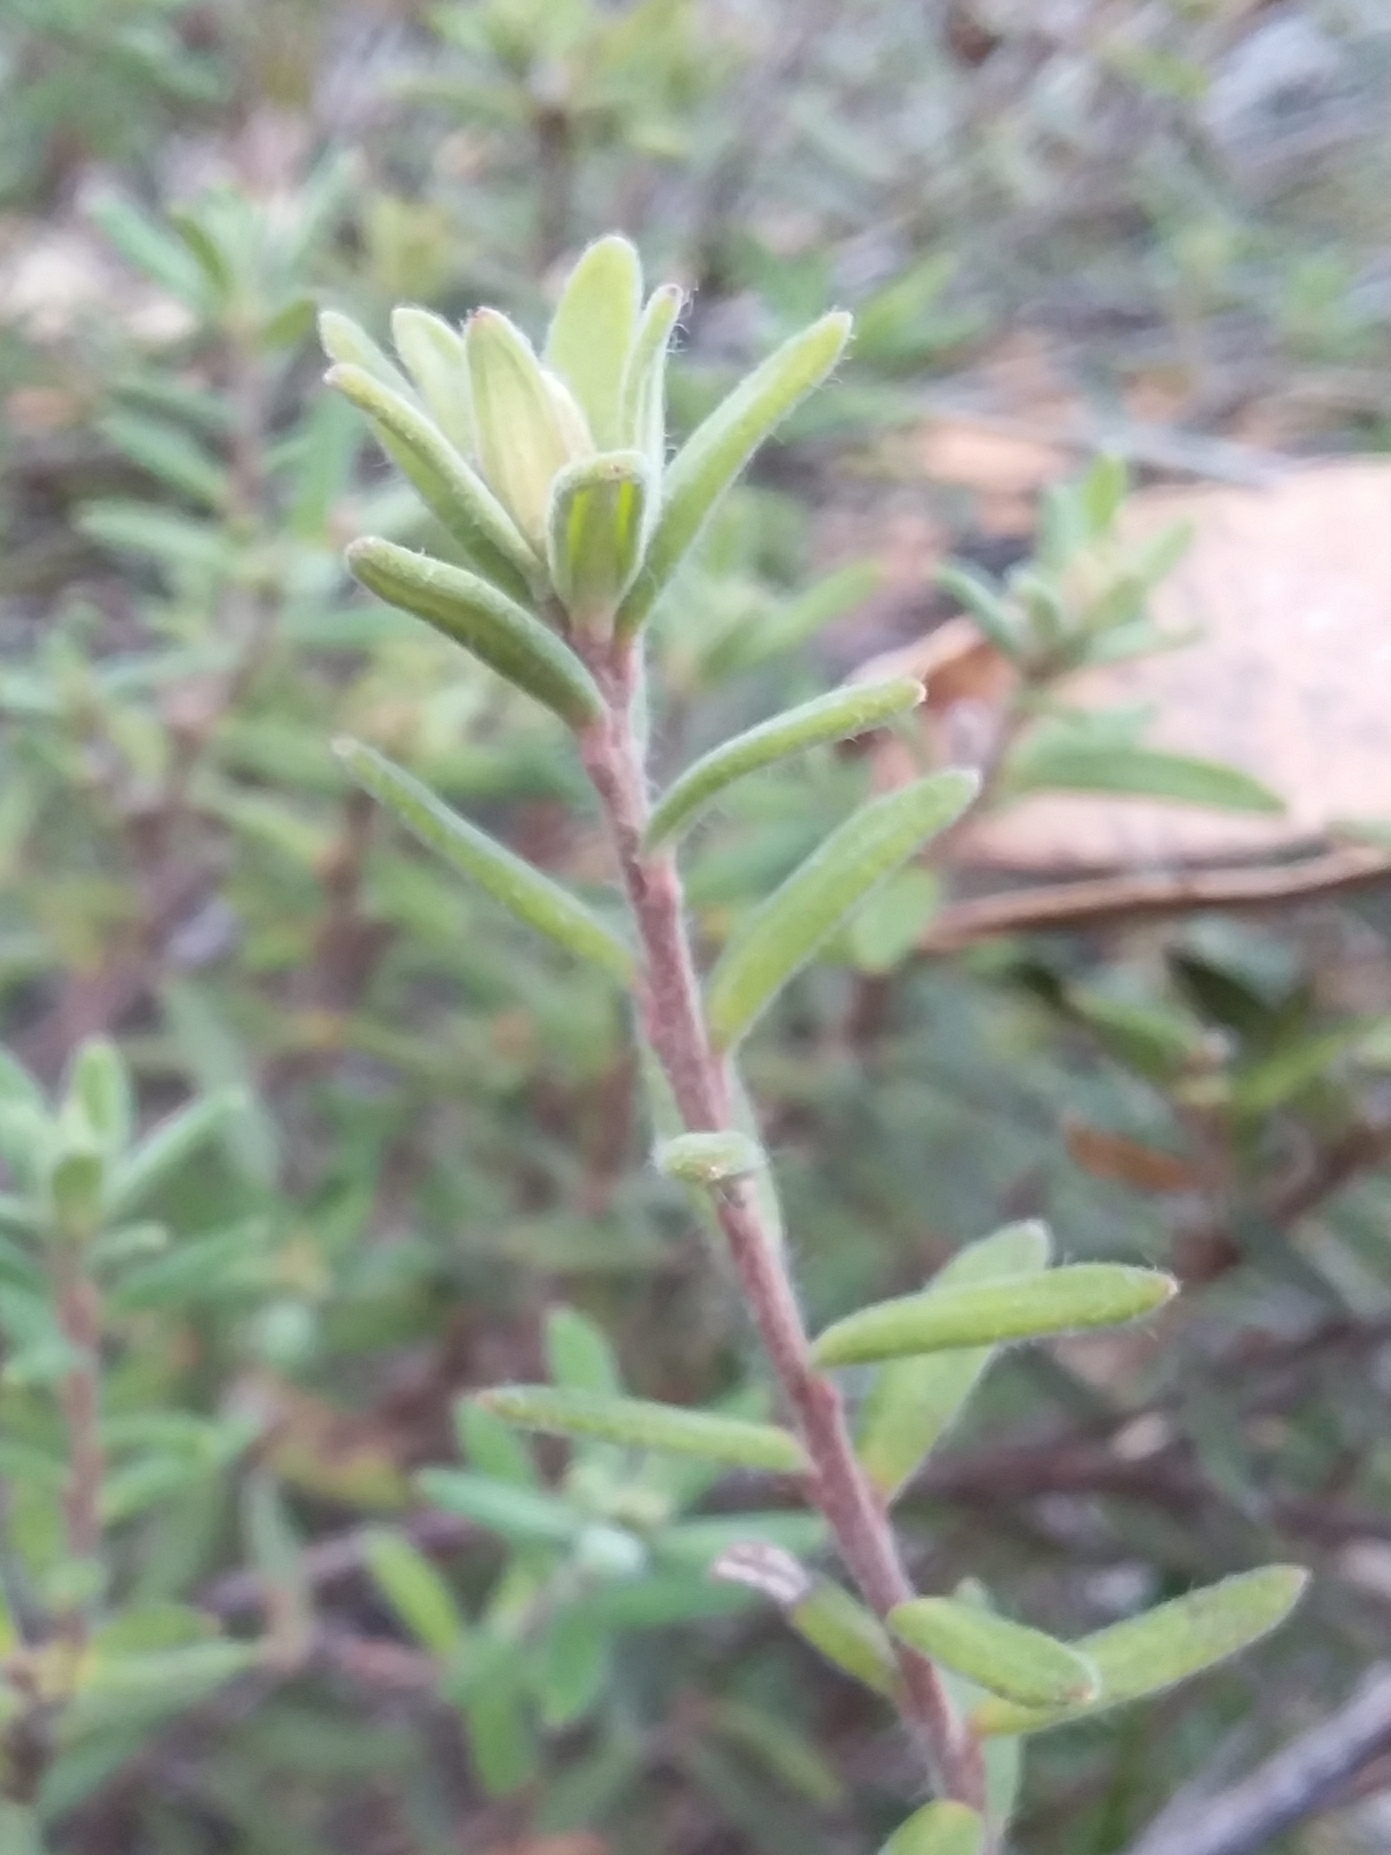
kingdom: Plantae
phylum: Tracheophyta
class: Magnoliopsida
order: Dilleniales
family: Dilleniaceae
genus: Hibbertia
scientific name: Hibbertia crinita
